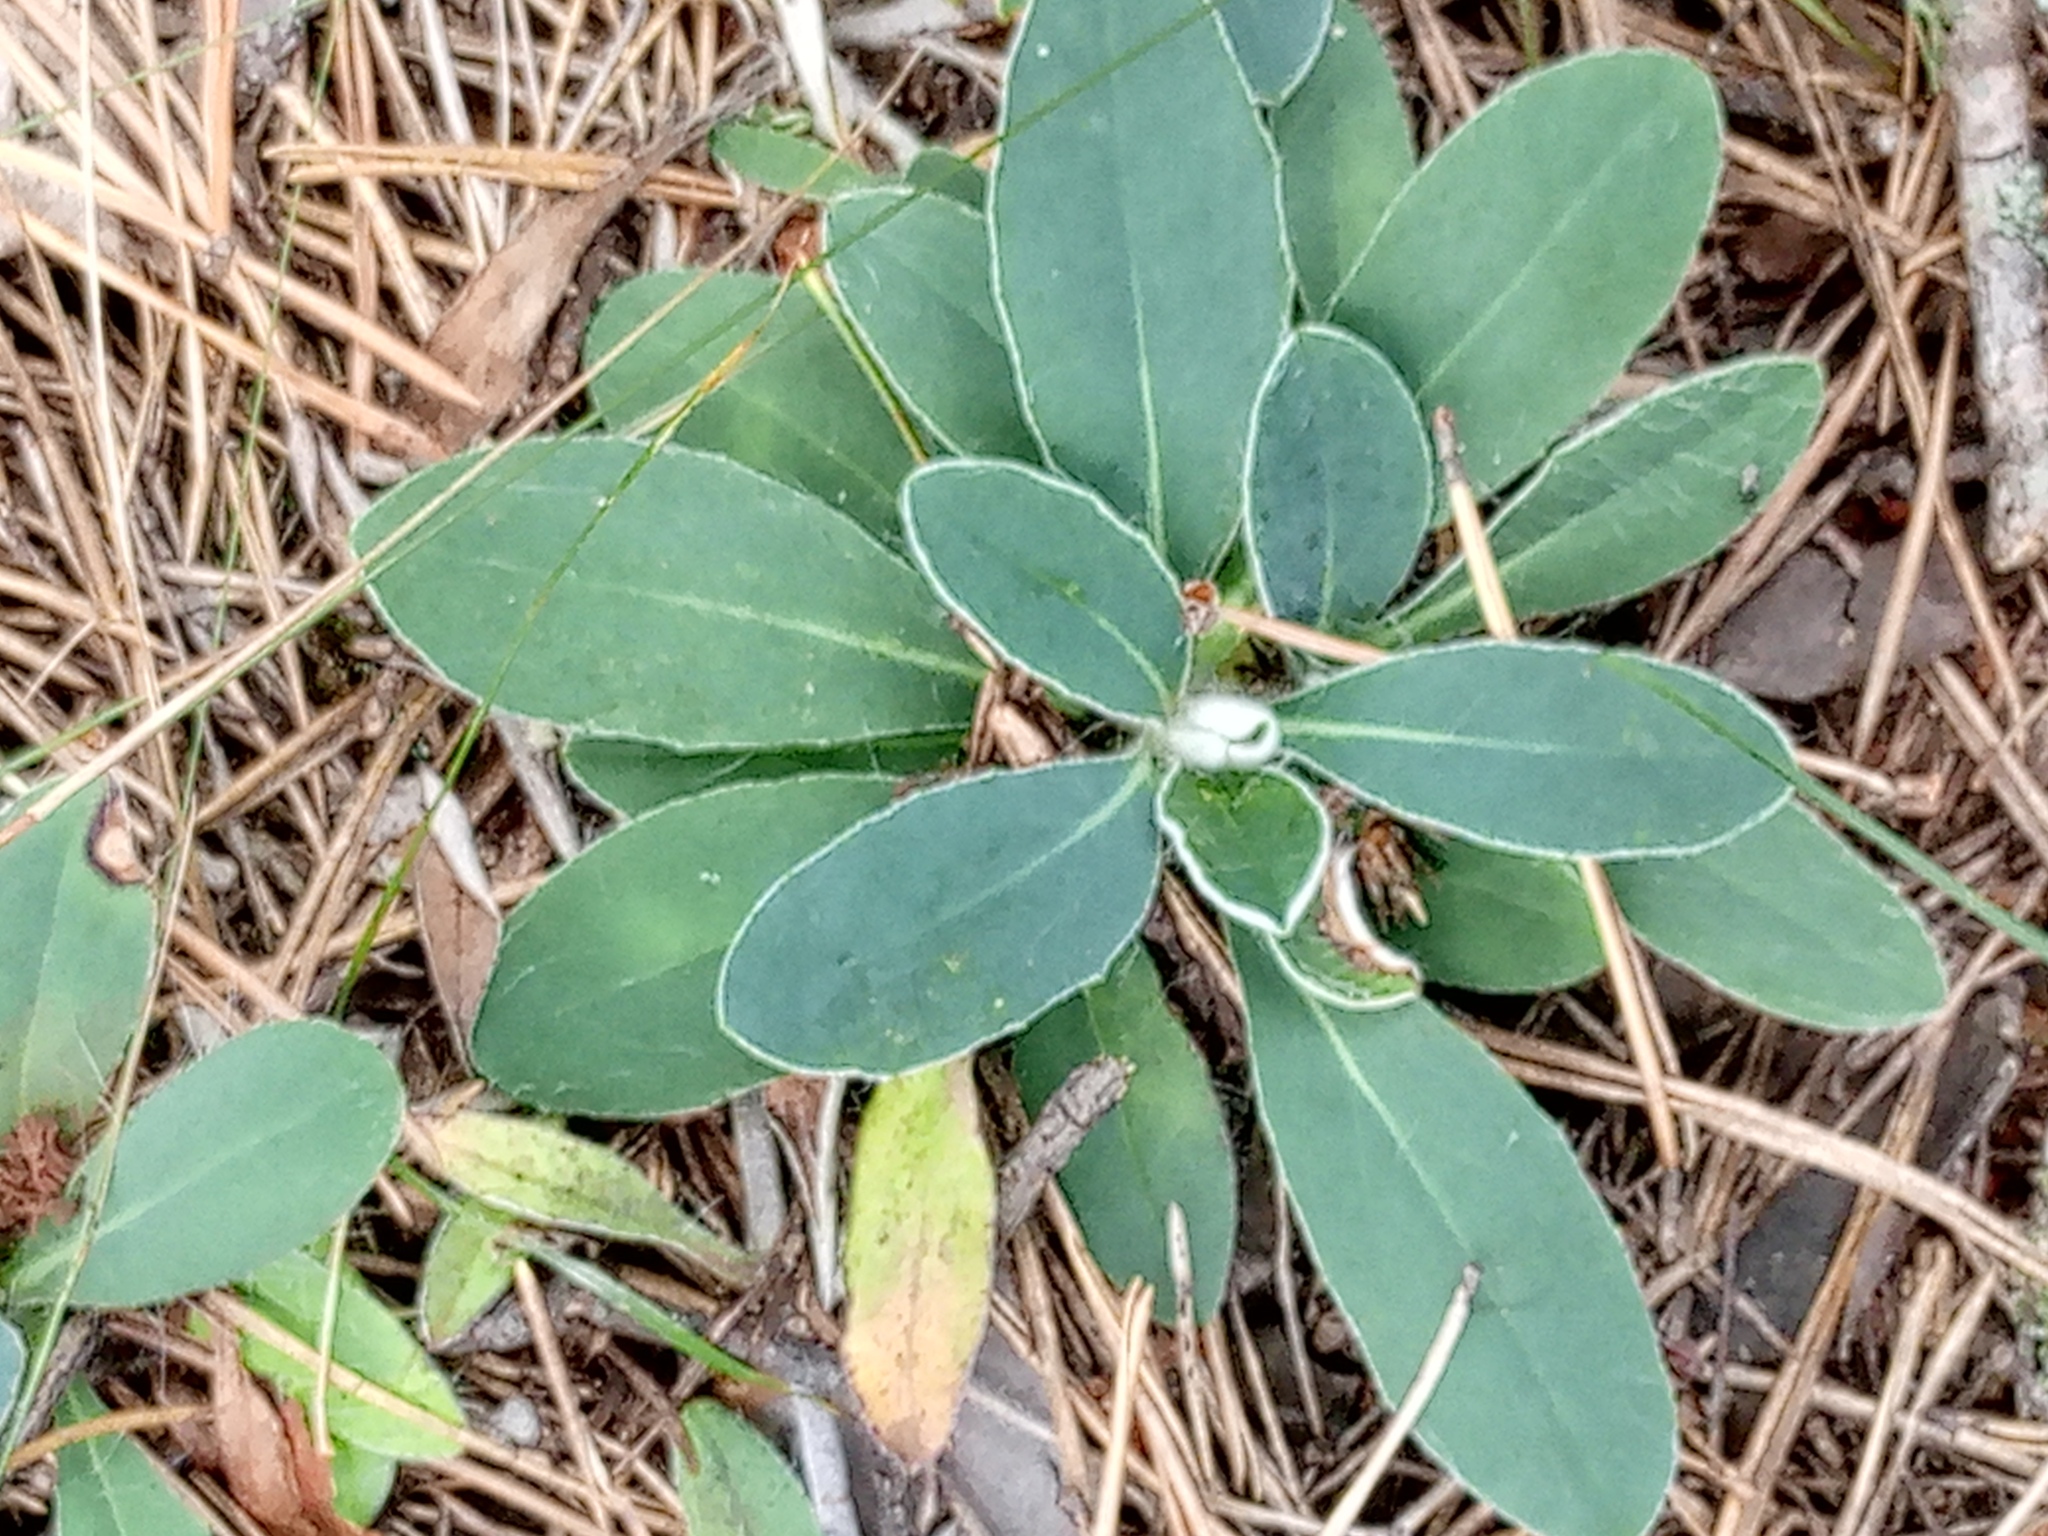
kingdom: Plantae
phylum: Tracheophyta
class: Magnoliopsida
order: Asterales
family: Asteraceae
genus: Pilosella
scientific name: Pilosella officinarum
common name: Mouse-ear hawkweed
